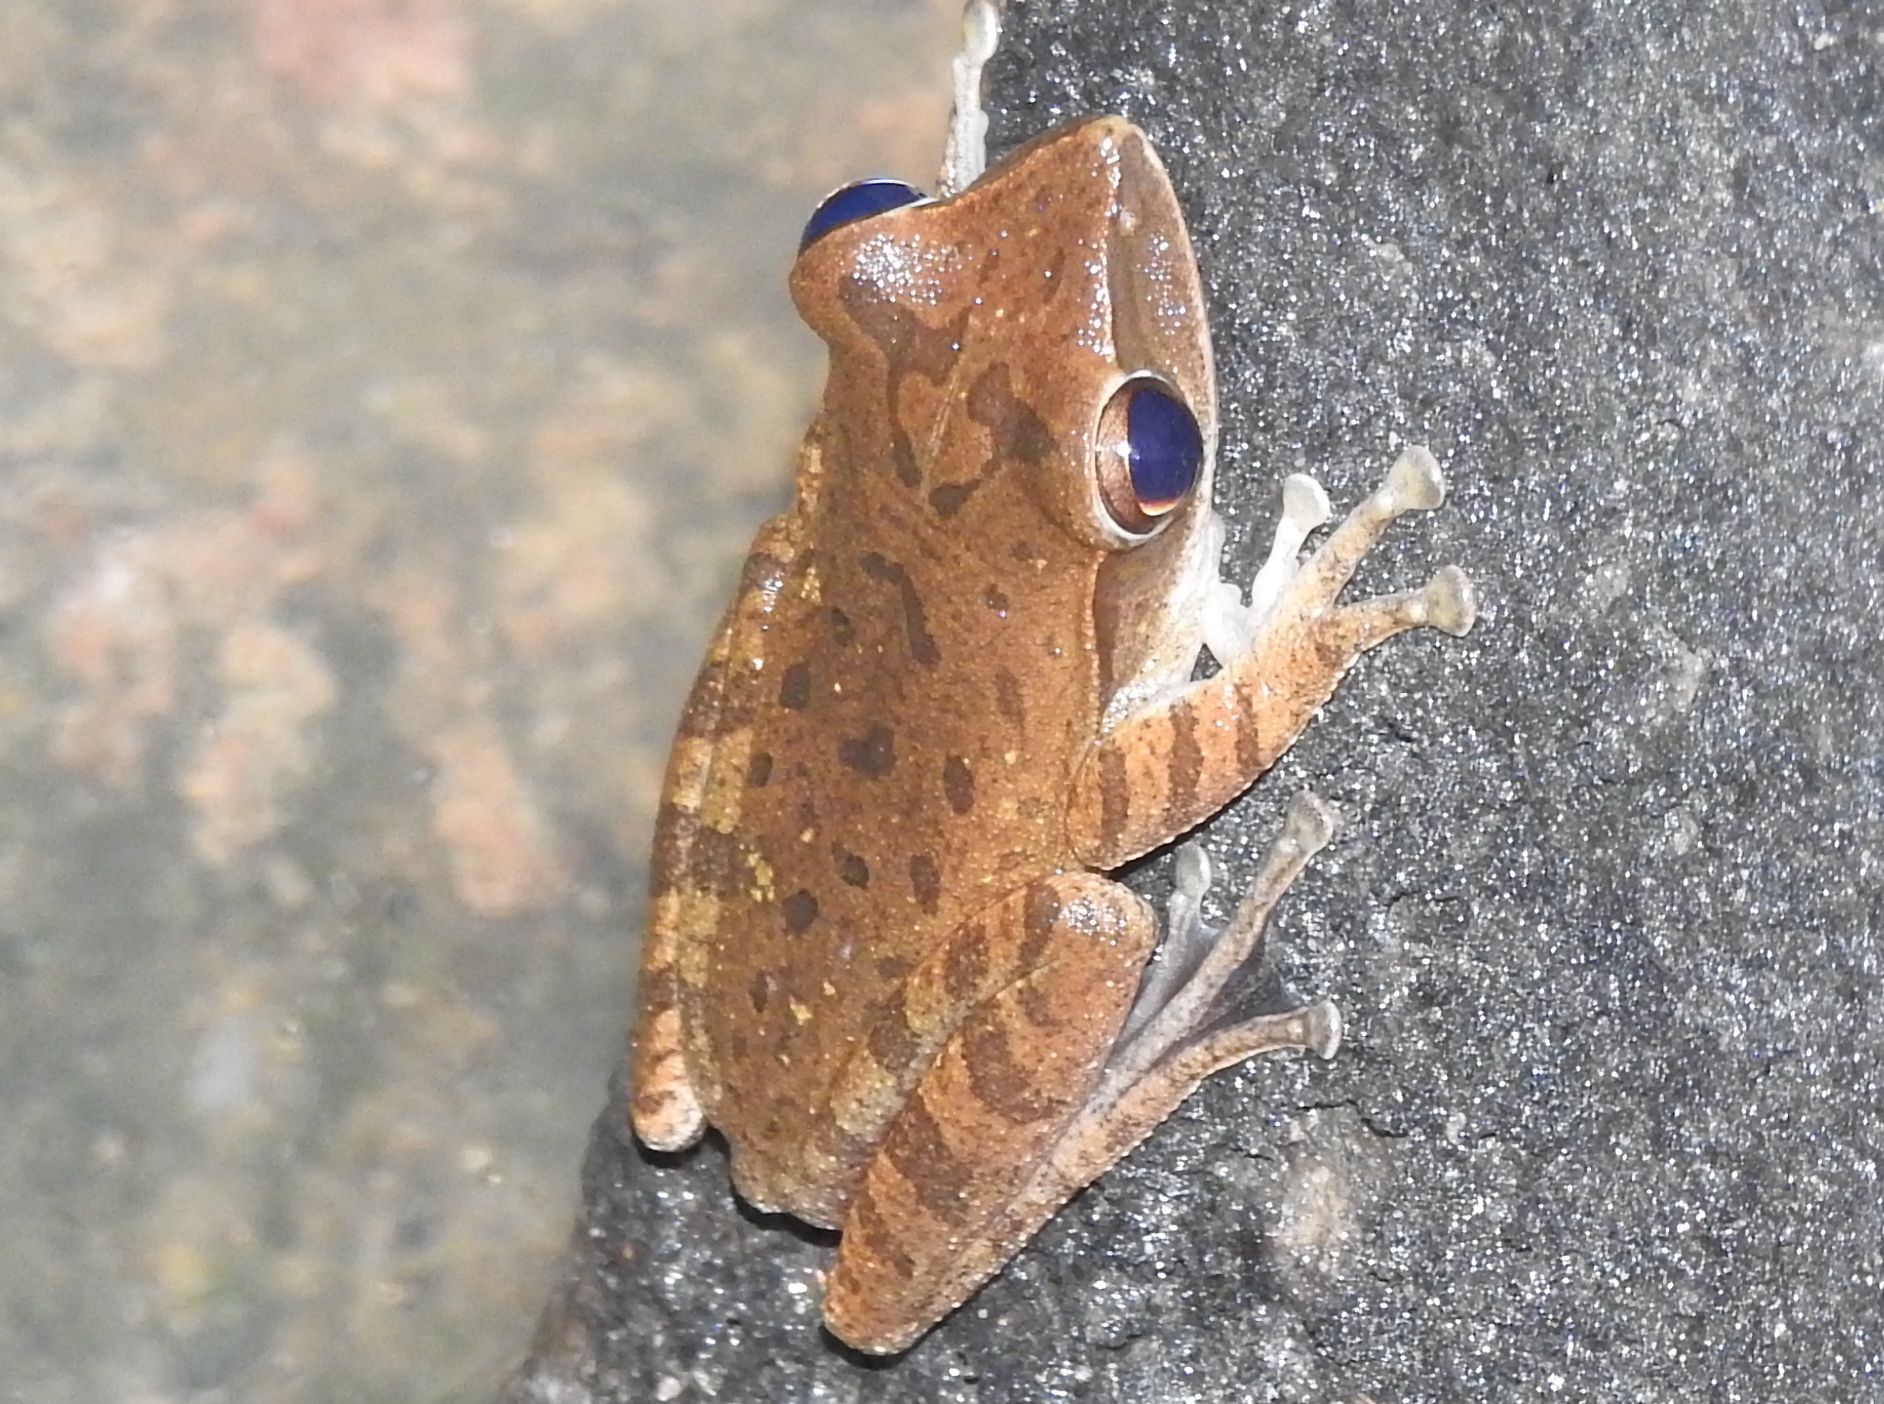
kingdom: Animalia
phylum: Chordata
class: Amphibia
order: Anura
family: Rhacophoridae
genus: Polypedates
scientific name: Polypedates leucomystax
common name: Common tree frog/four-lined tree frog
